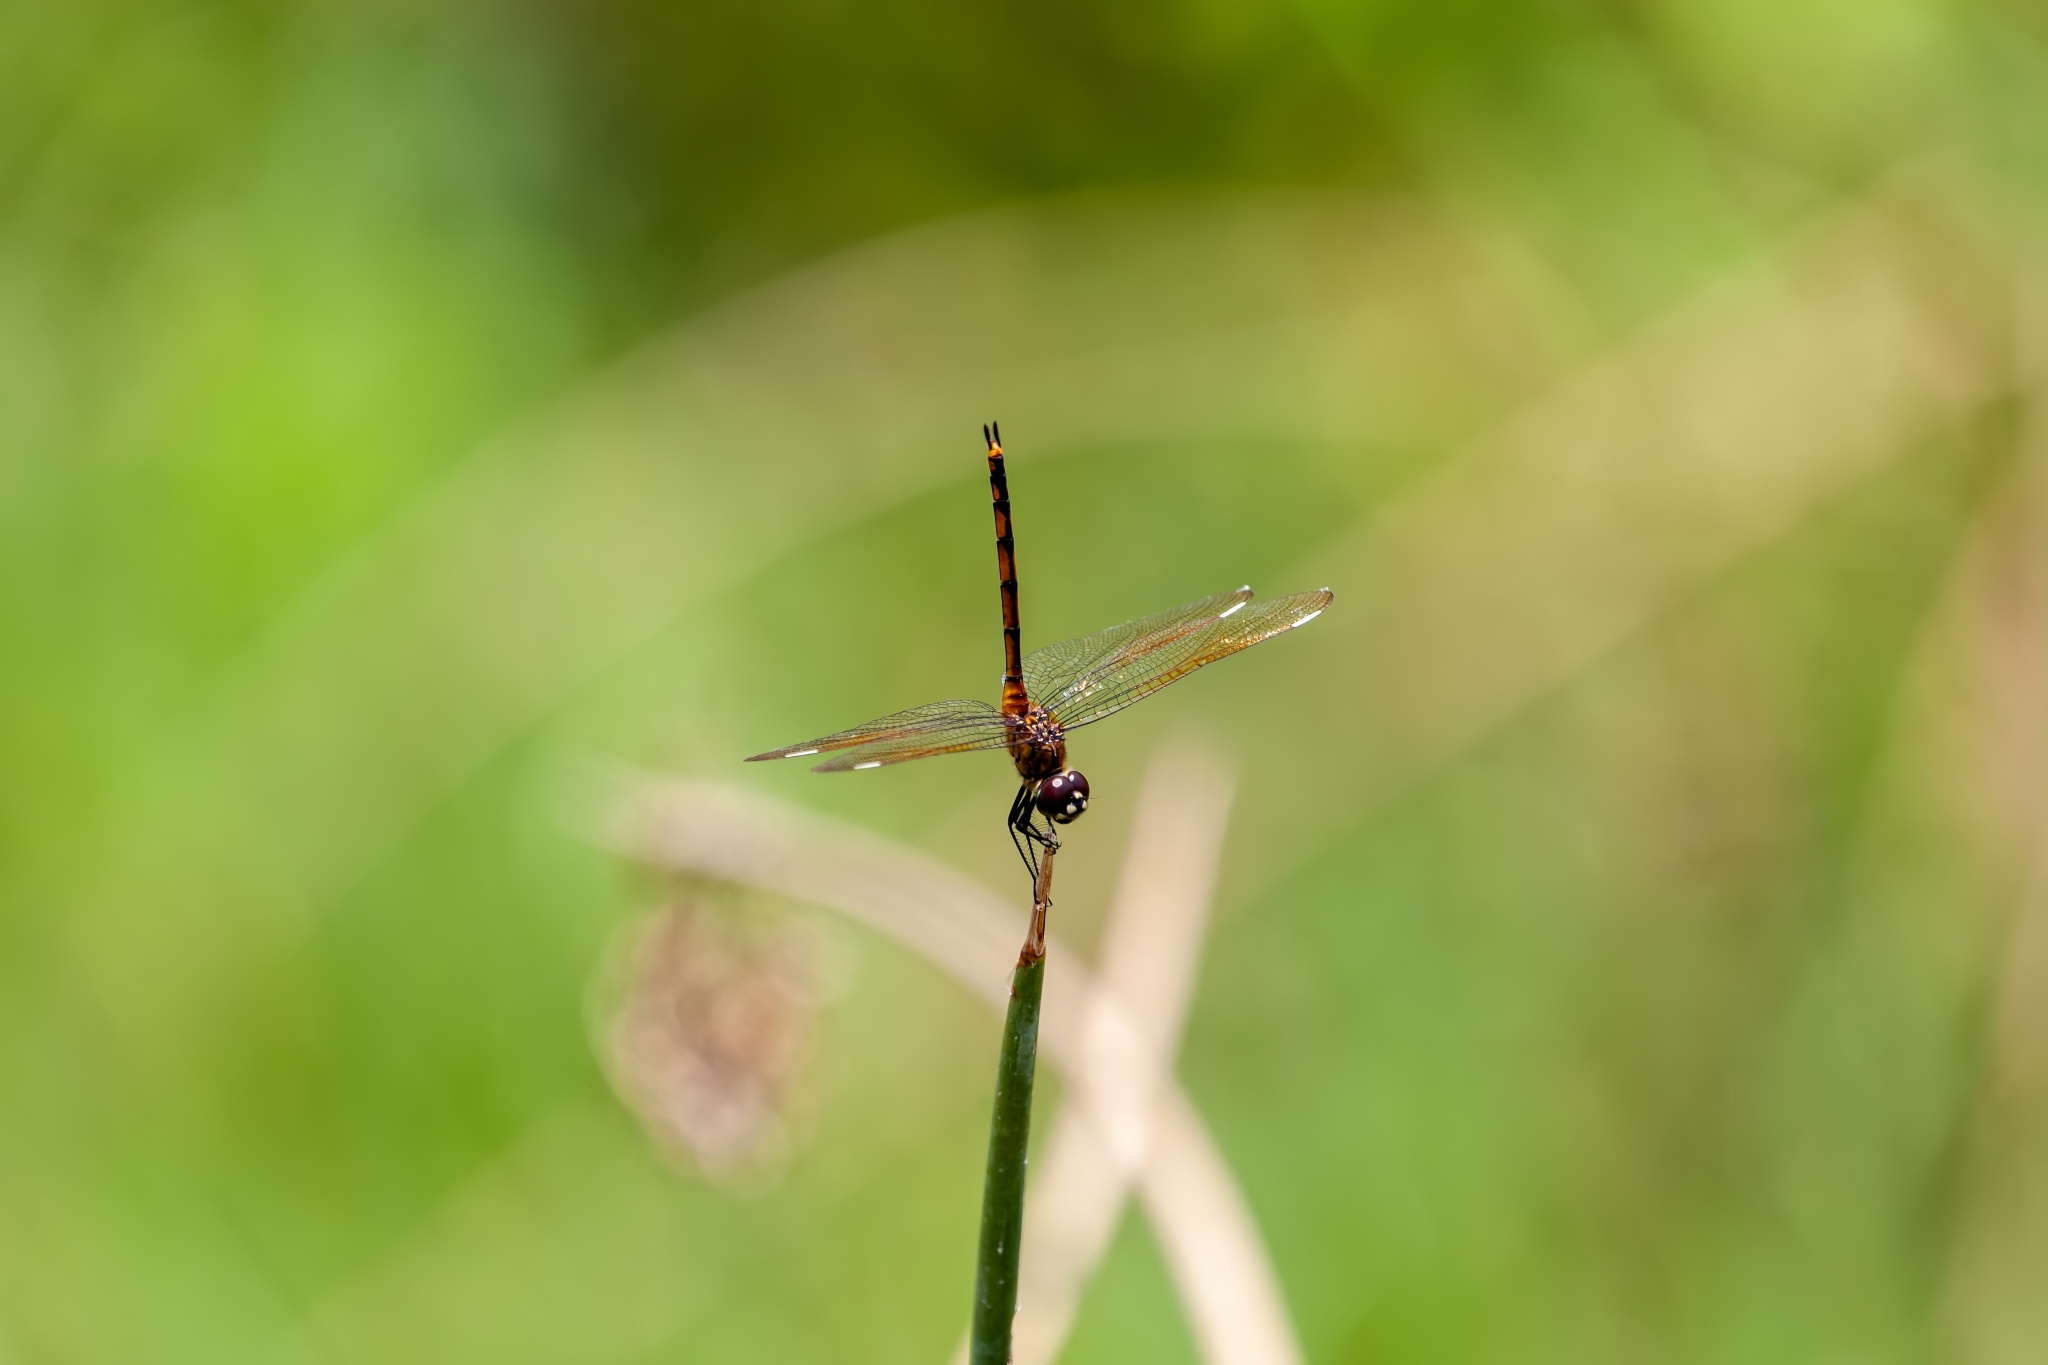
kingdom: Animalia
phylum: Arthropoda
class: Insecta
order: Odonata
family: Libellulidae
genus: Brachymesia
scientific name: Brachymesia gravida
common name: Four-spotted pennant
